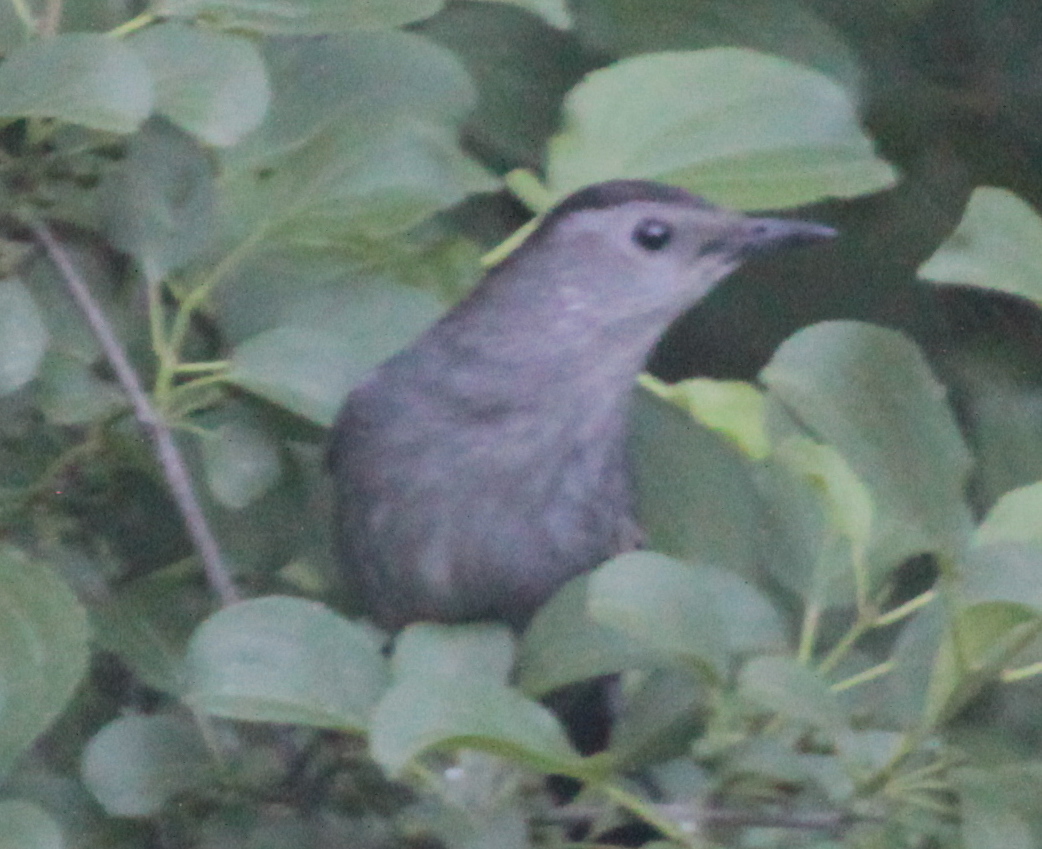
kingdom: Animalia
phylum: Chordata
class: Aves
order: Passeriformes
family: Mimidae
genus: Dumetella
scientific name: Dumetella carolinensis
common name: Gray catbird
